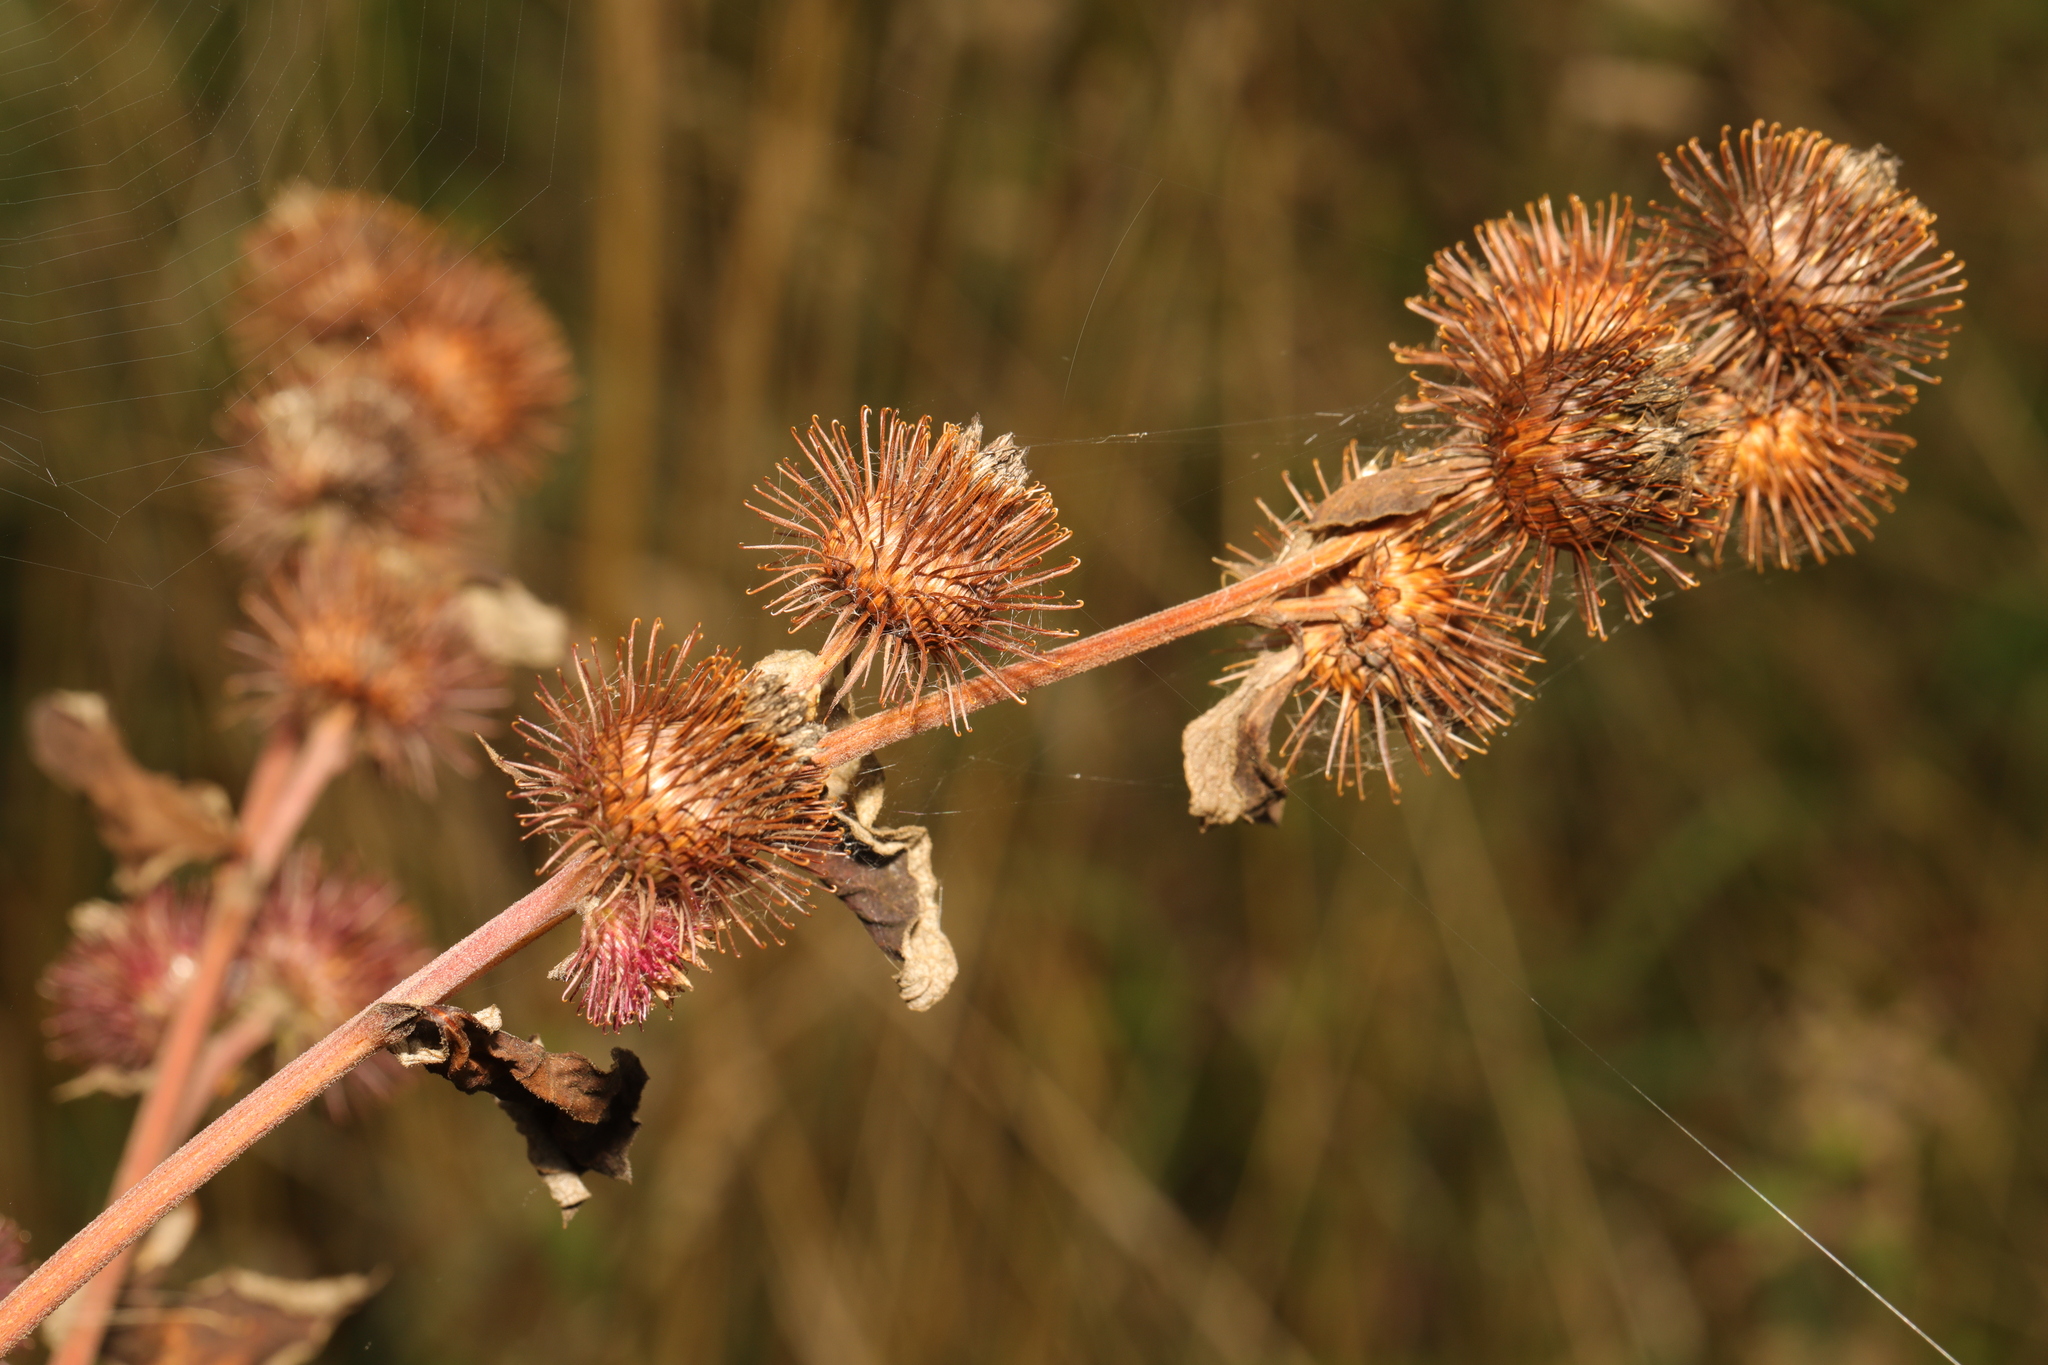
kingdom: Plantae
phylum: Tracheophyta
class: Magnoliopsida
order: Asterales
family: Asteraceae
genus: Arctium
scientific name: Arctium minus
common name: Lesser burdock
